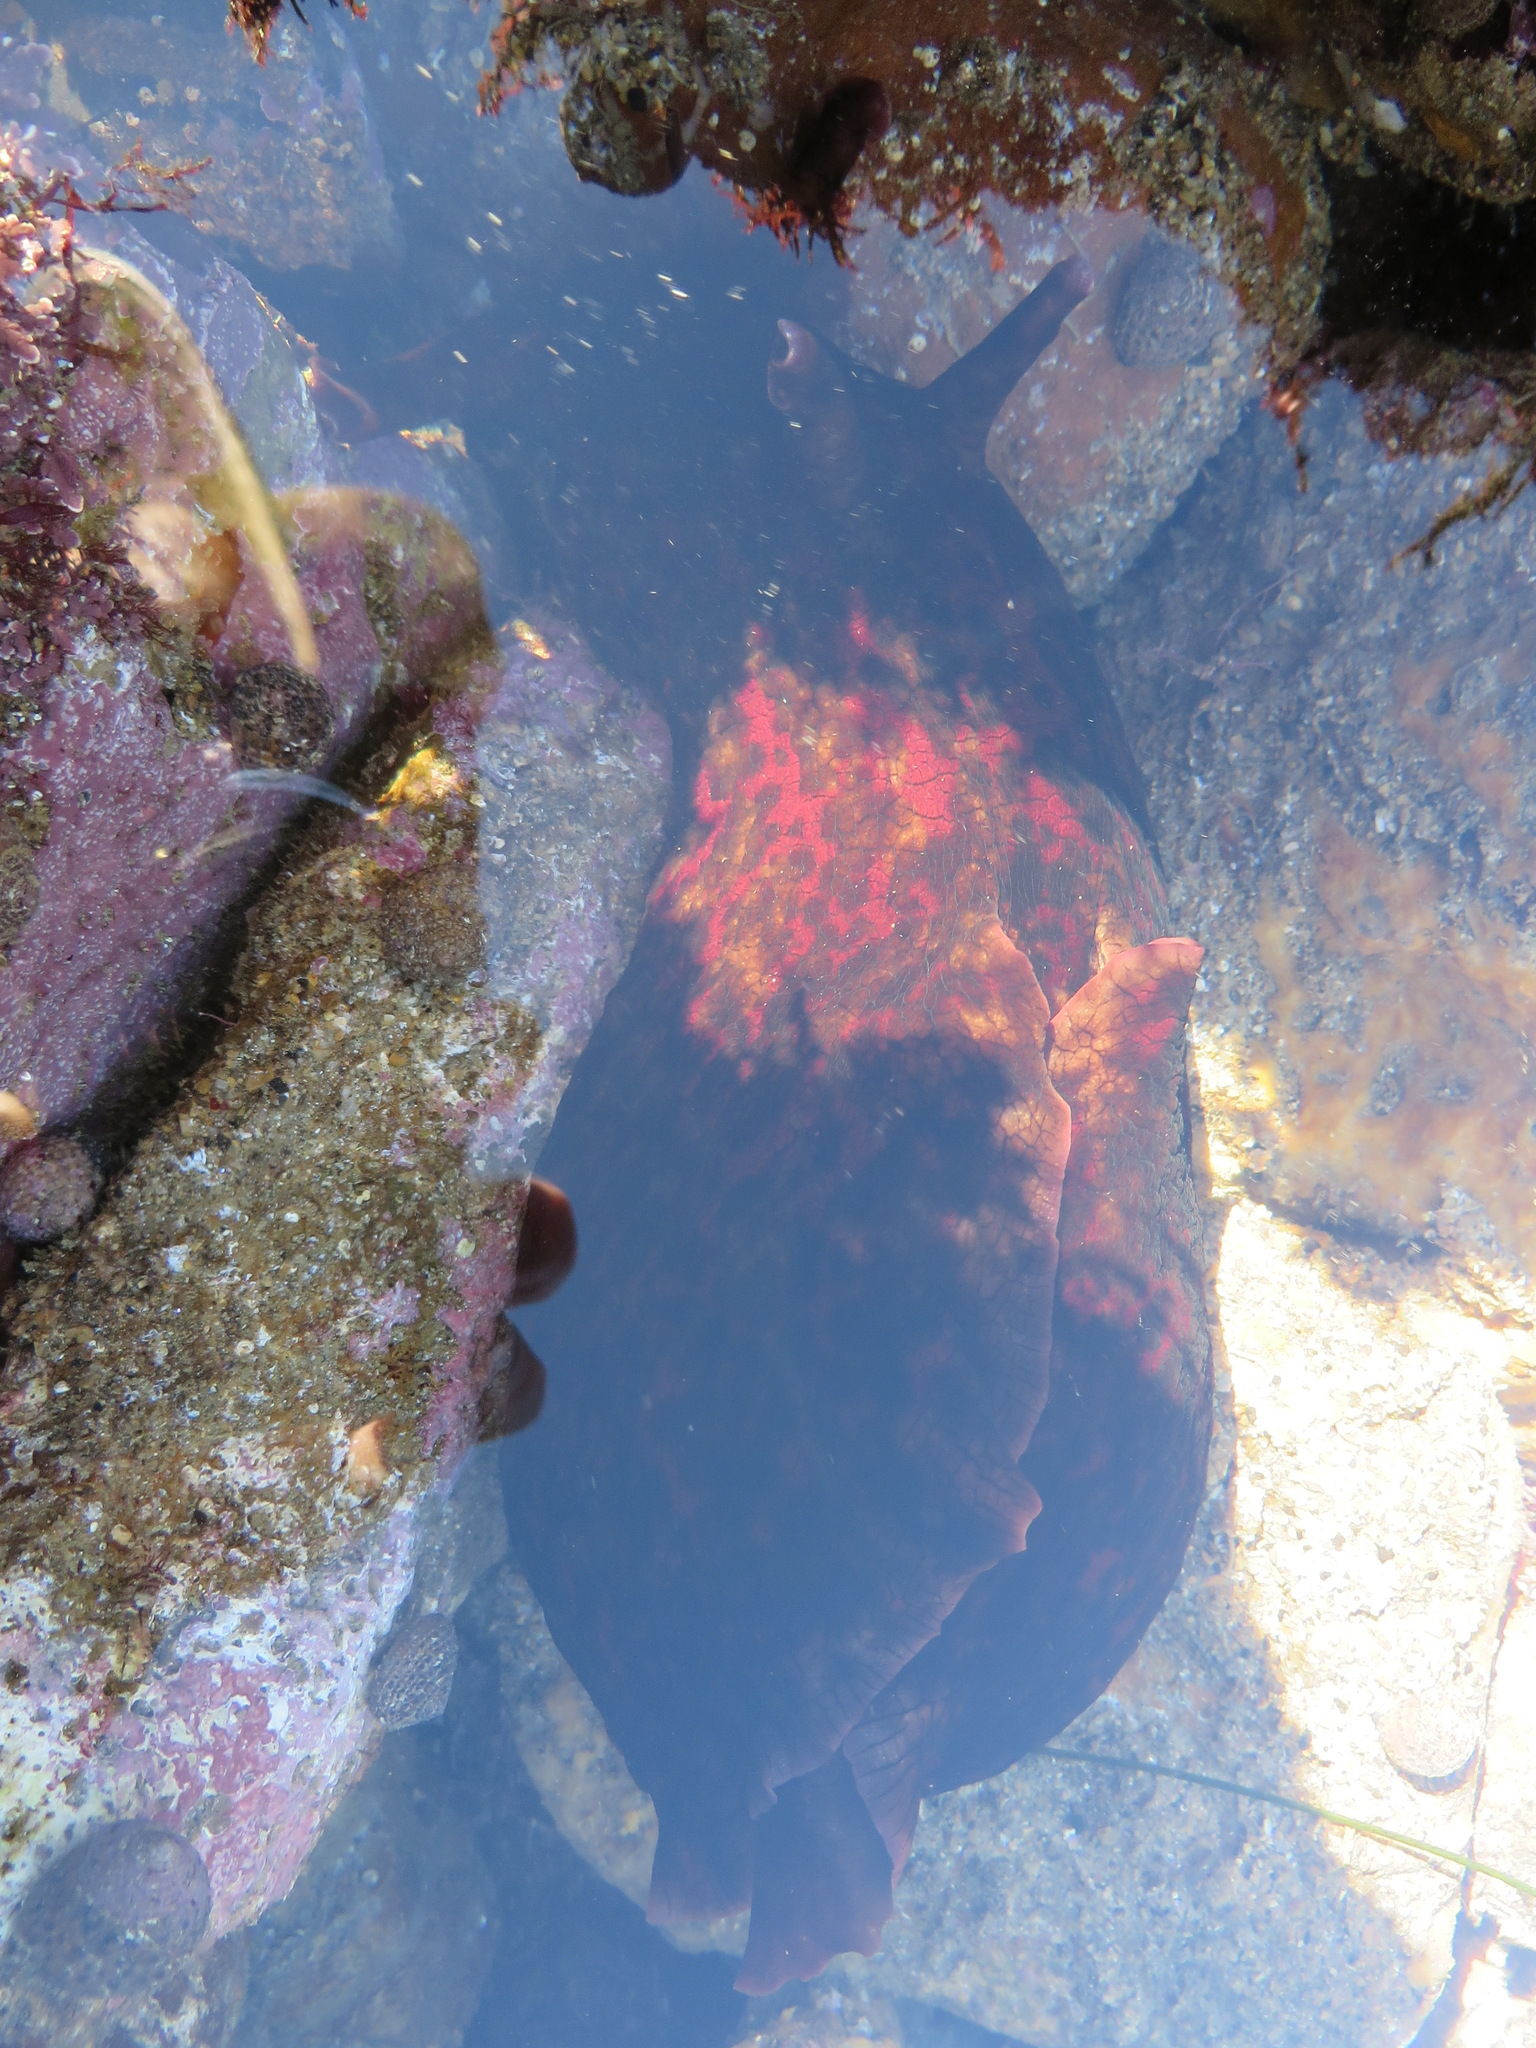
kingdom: Animalia
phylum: Mollusca
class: Gastropoda
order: Aplysiida
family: Aplysiidae
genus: Aplysia
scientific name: Aplysia californica
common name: California seahare
